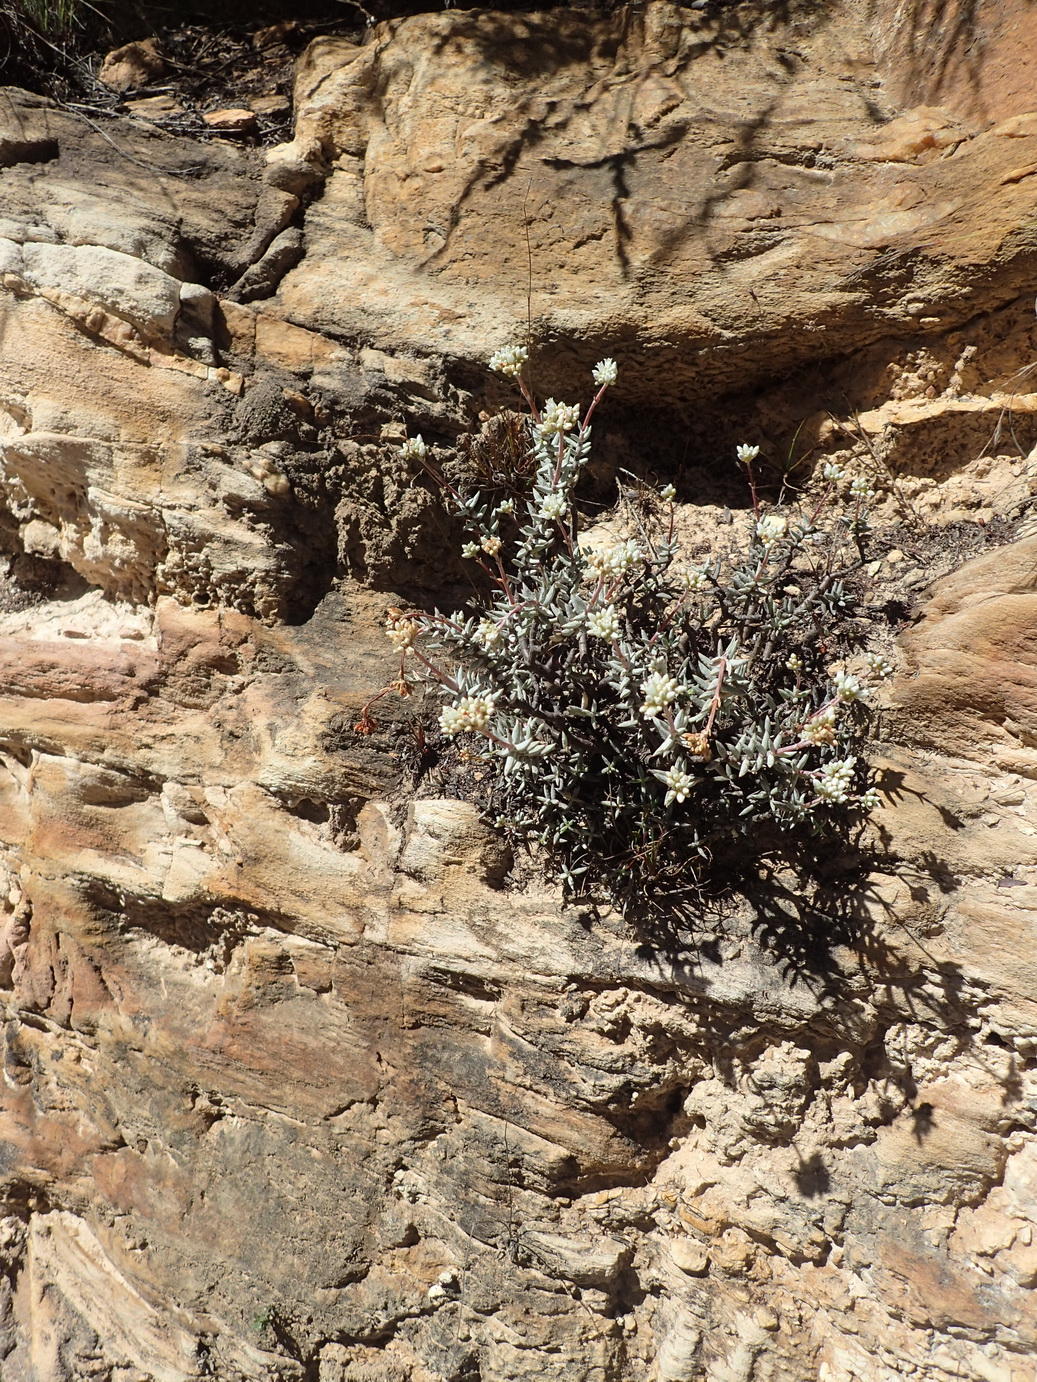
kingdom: Plantae
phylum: Tracheophyta
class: Magnoliopsida
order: Saxifragales
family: Crassulaceae
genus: Crassula
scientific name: Crassula biplanata
